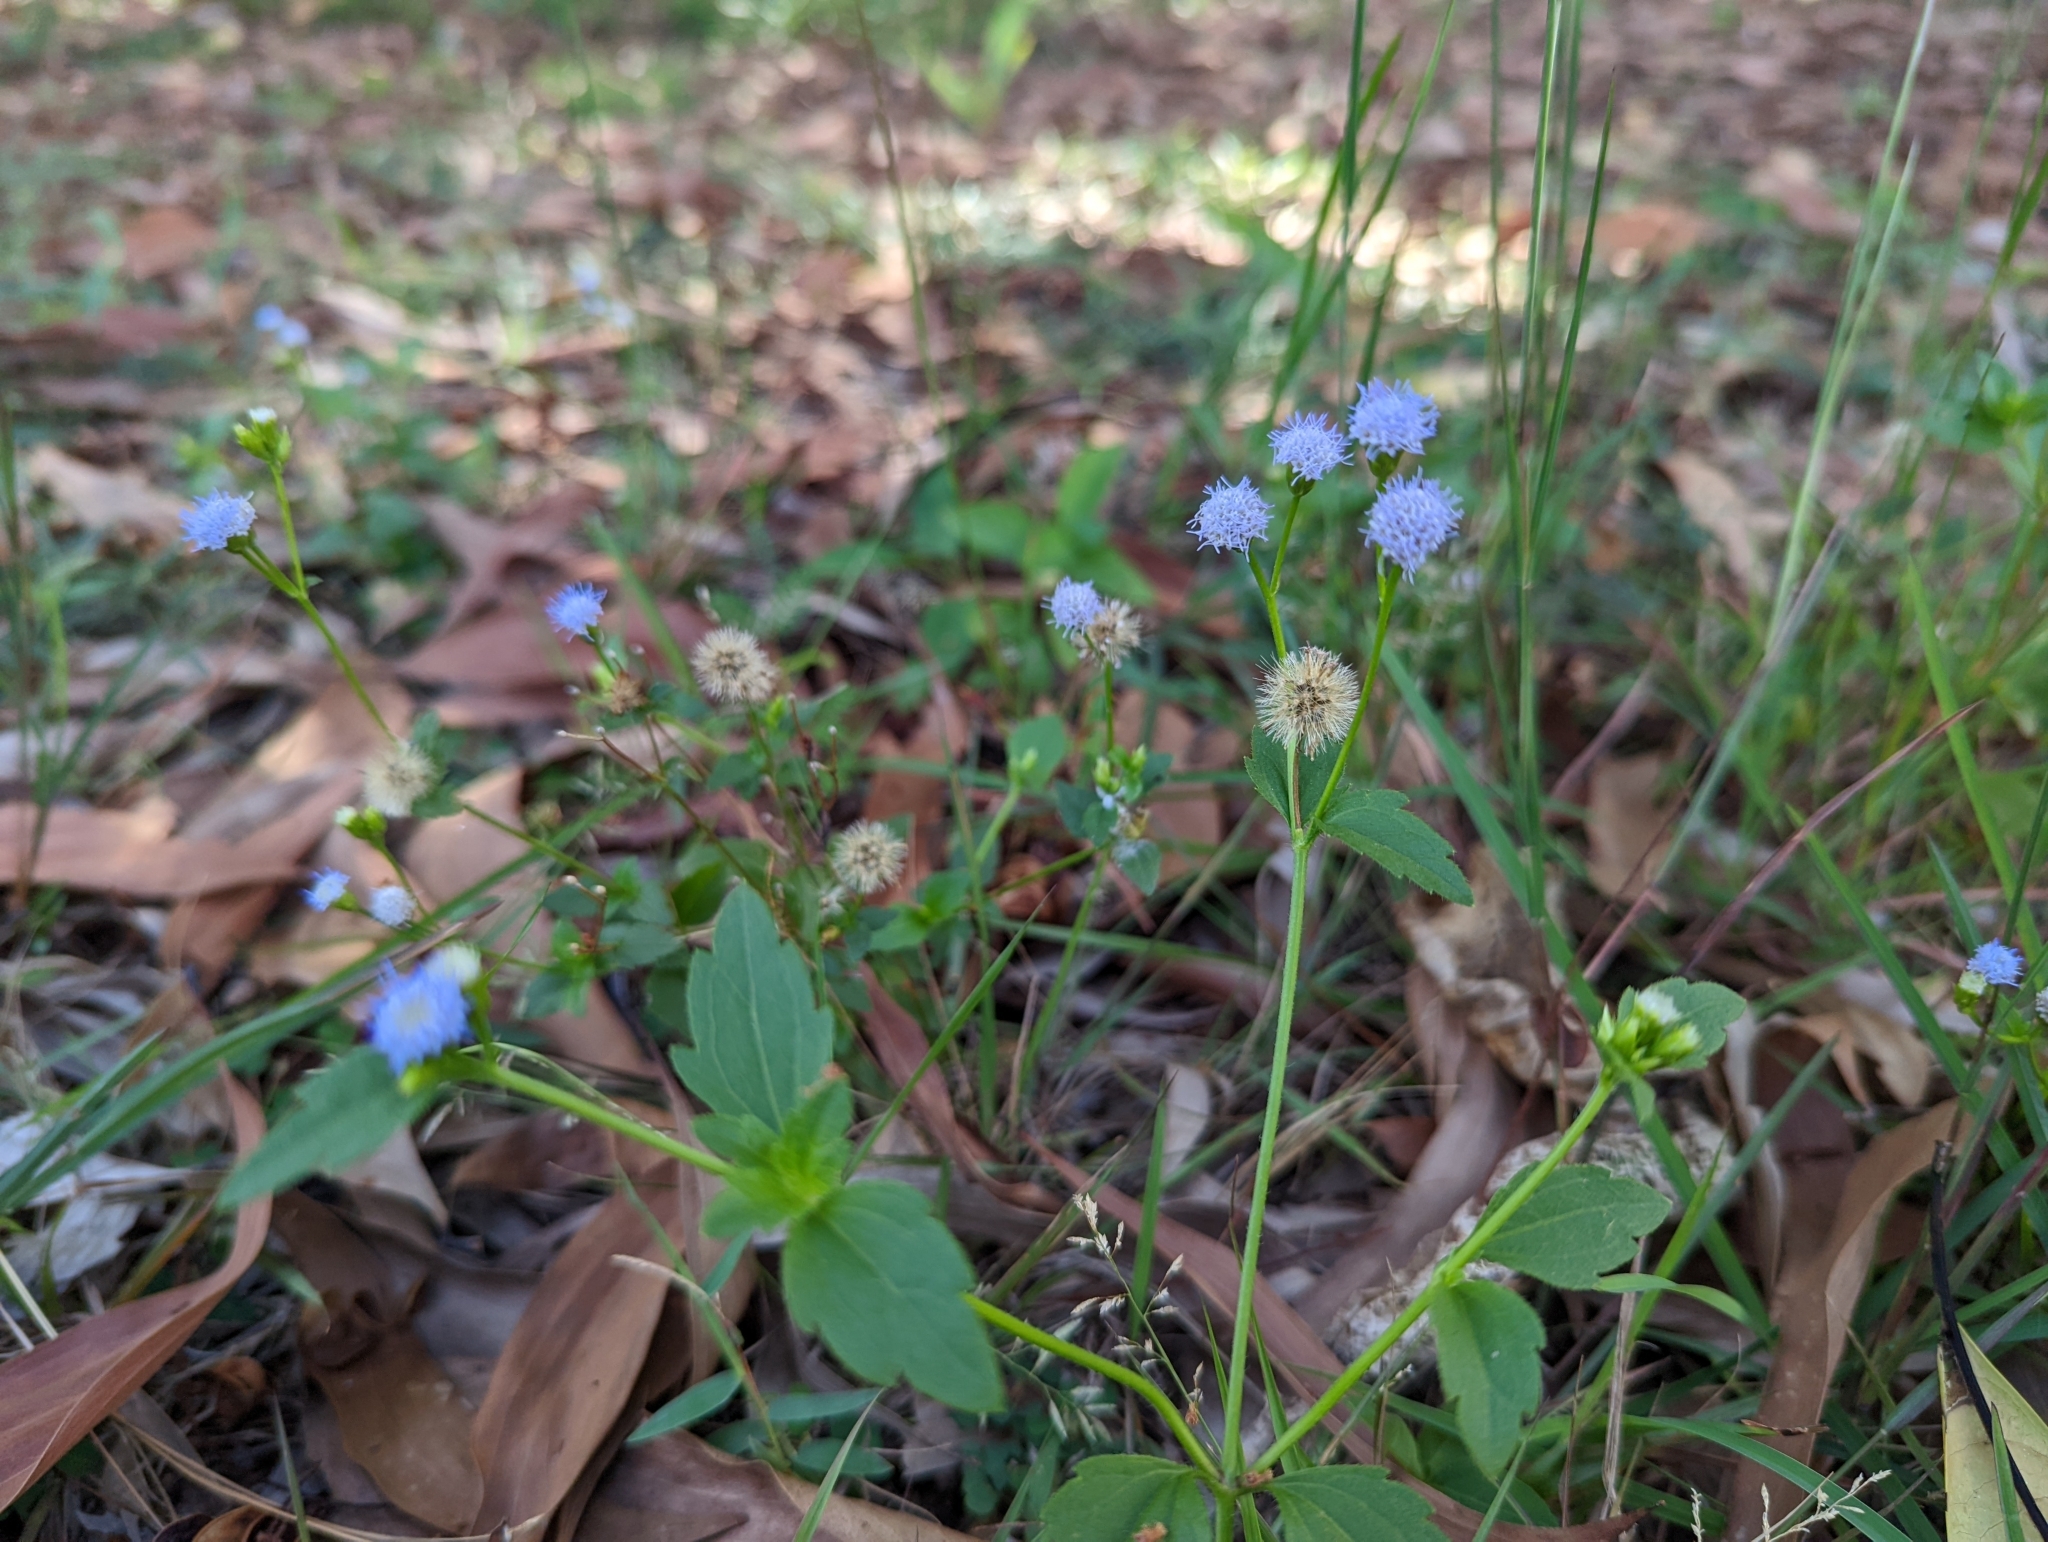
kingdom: Plantae
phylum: Tracheophyta
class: Magnoliopsida
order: Asterales
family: Asteraceae
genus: Praxelis
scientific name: Praxelis clematidea
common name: Praxelis
